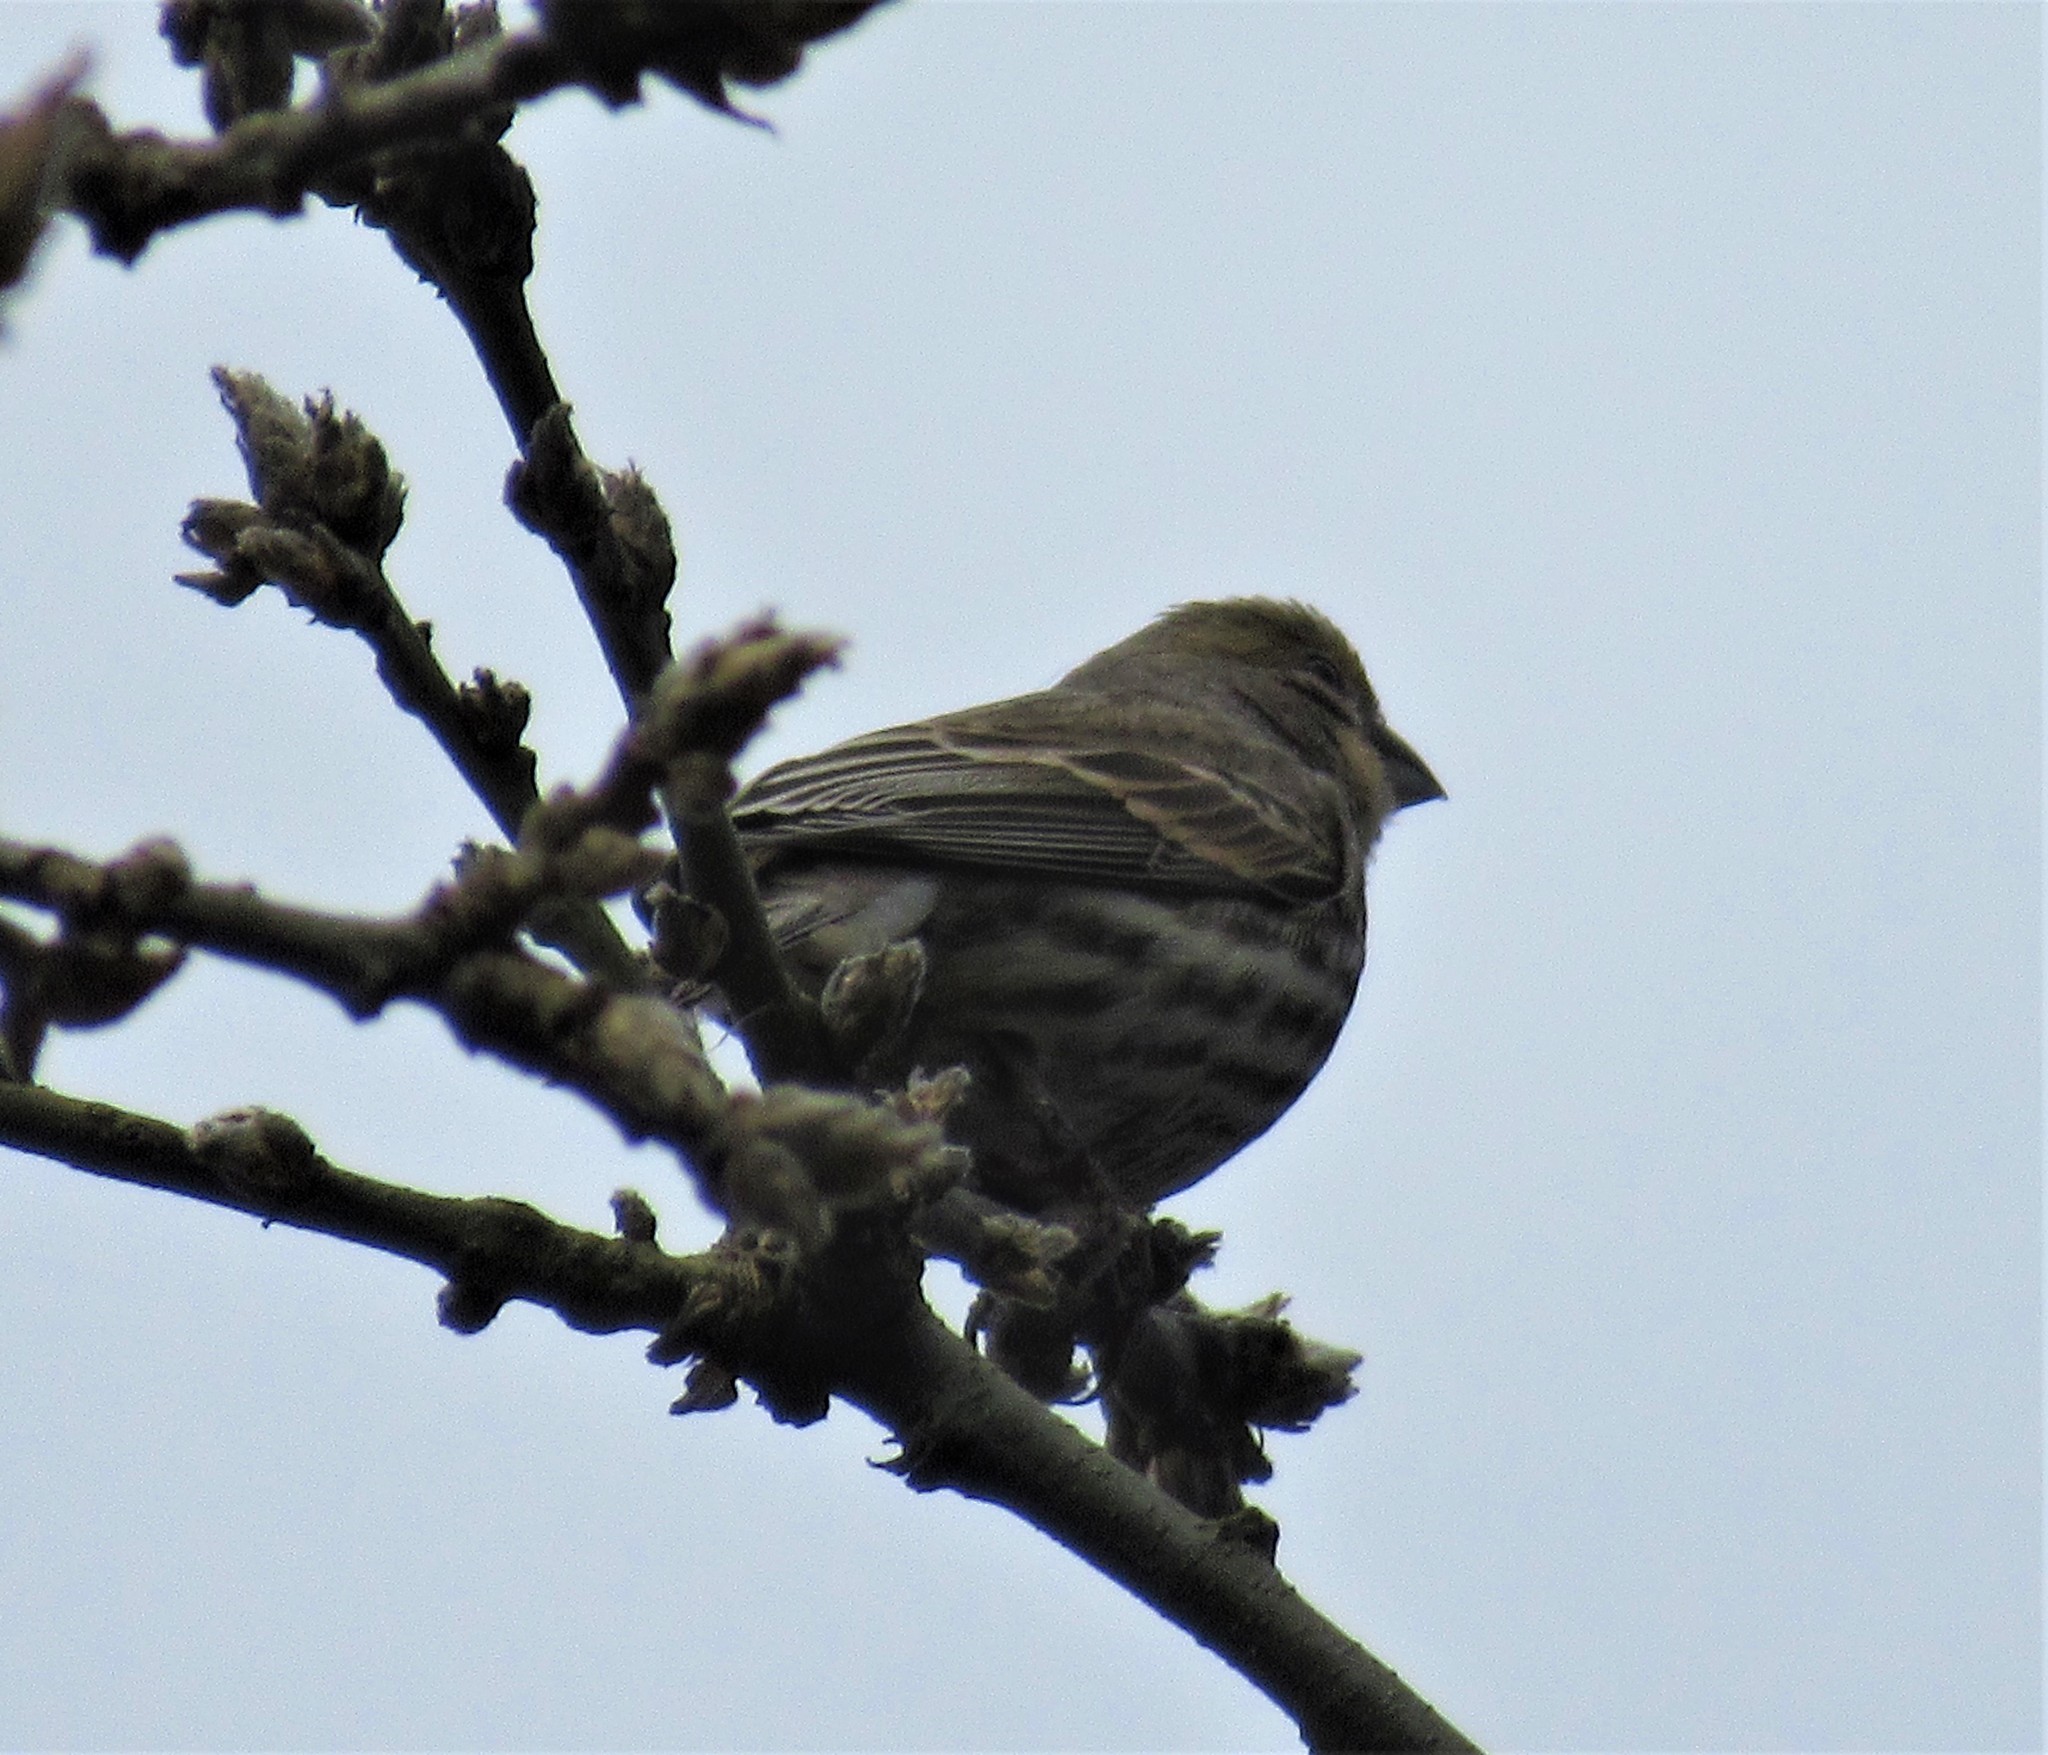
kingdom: Animalia
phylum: Chordata
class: Aves
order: Passeriformes
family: Fringillidae
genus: Haemorhous
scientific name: Haemorhous mexicanus
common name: House finch
